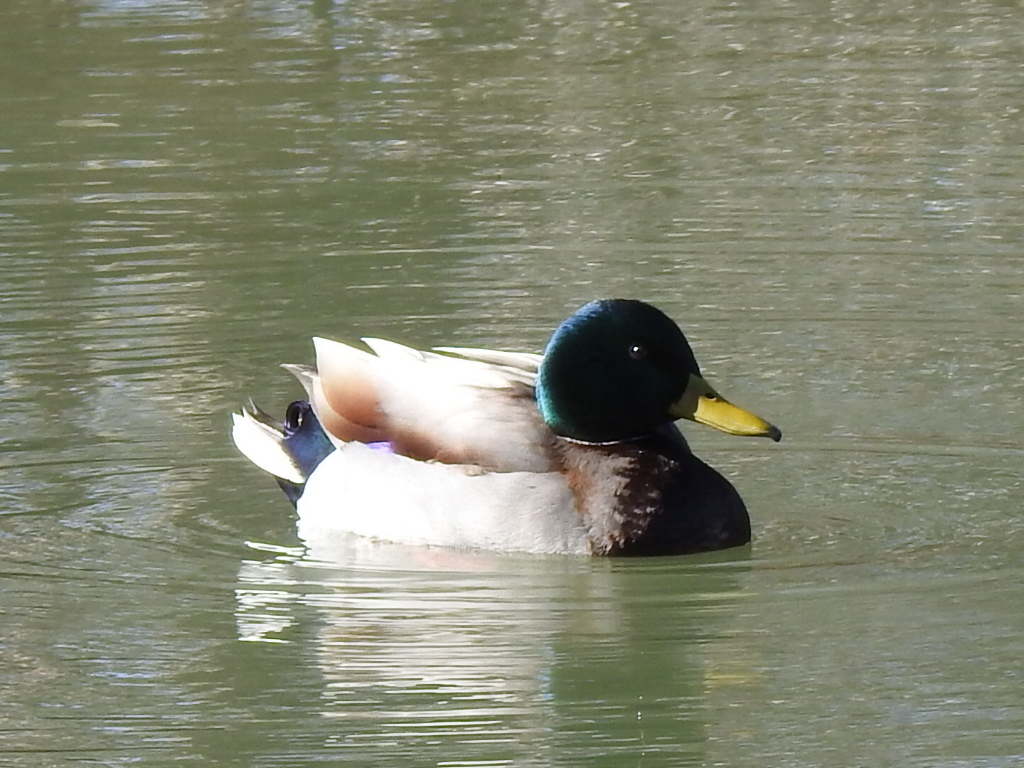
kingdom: Animalia
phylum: Chordata
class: Aves
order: Anseriformes
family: Anatidae
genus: Anas
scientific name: Anas platyrhynchos
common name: Mallard
